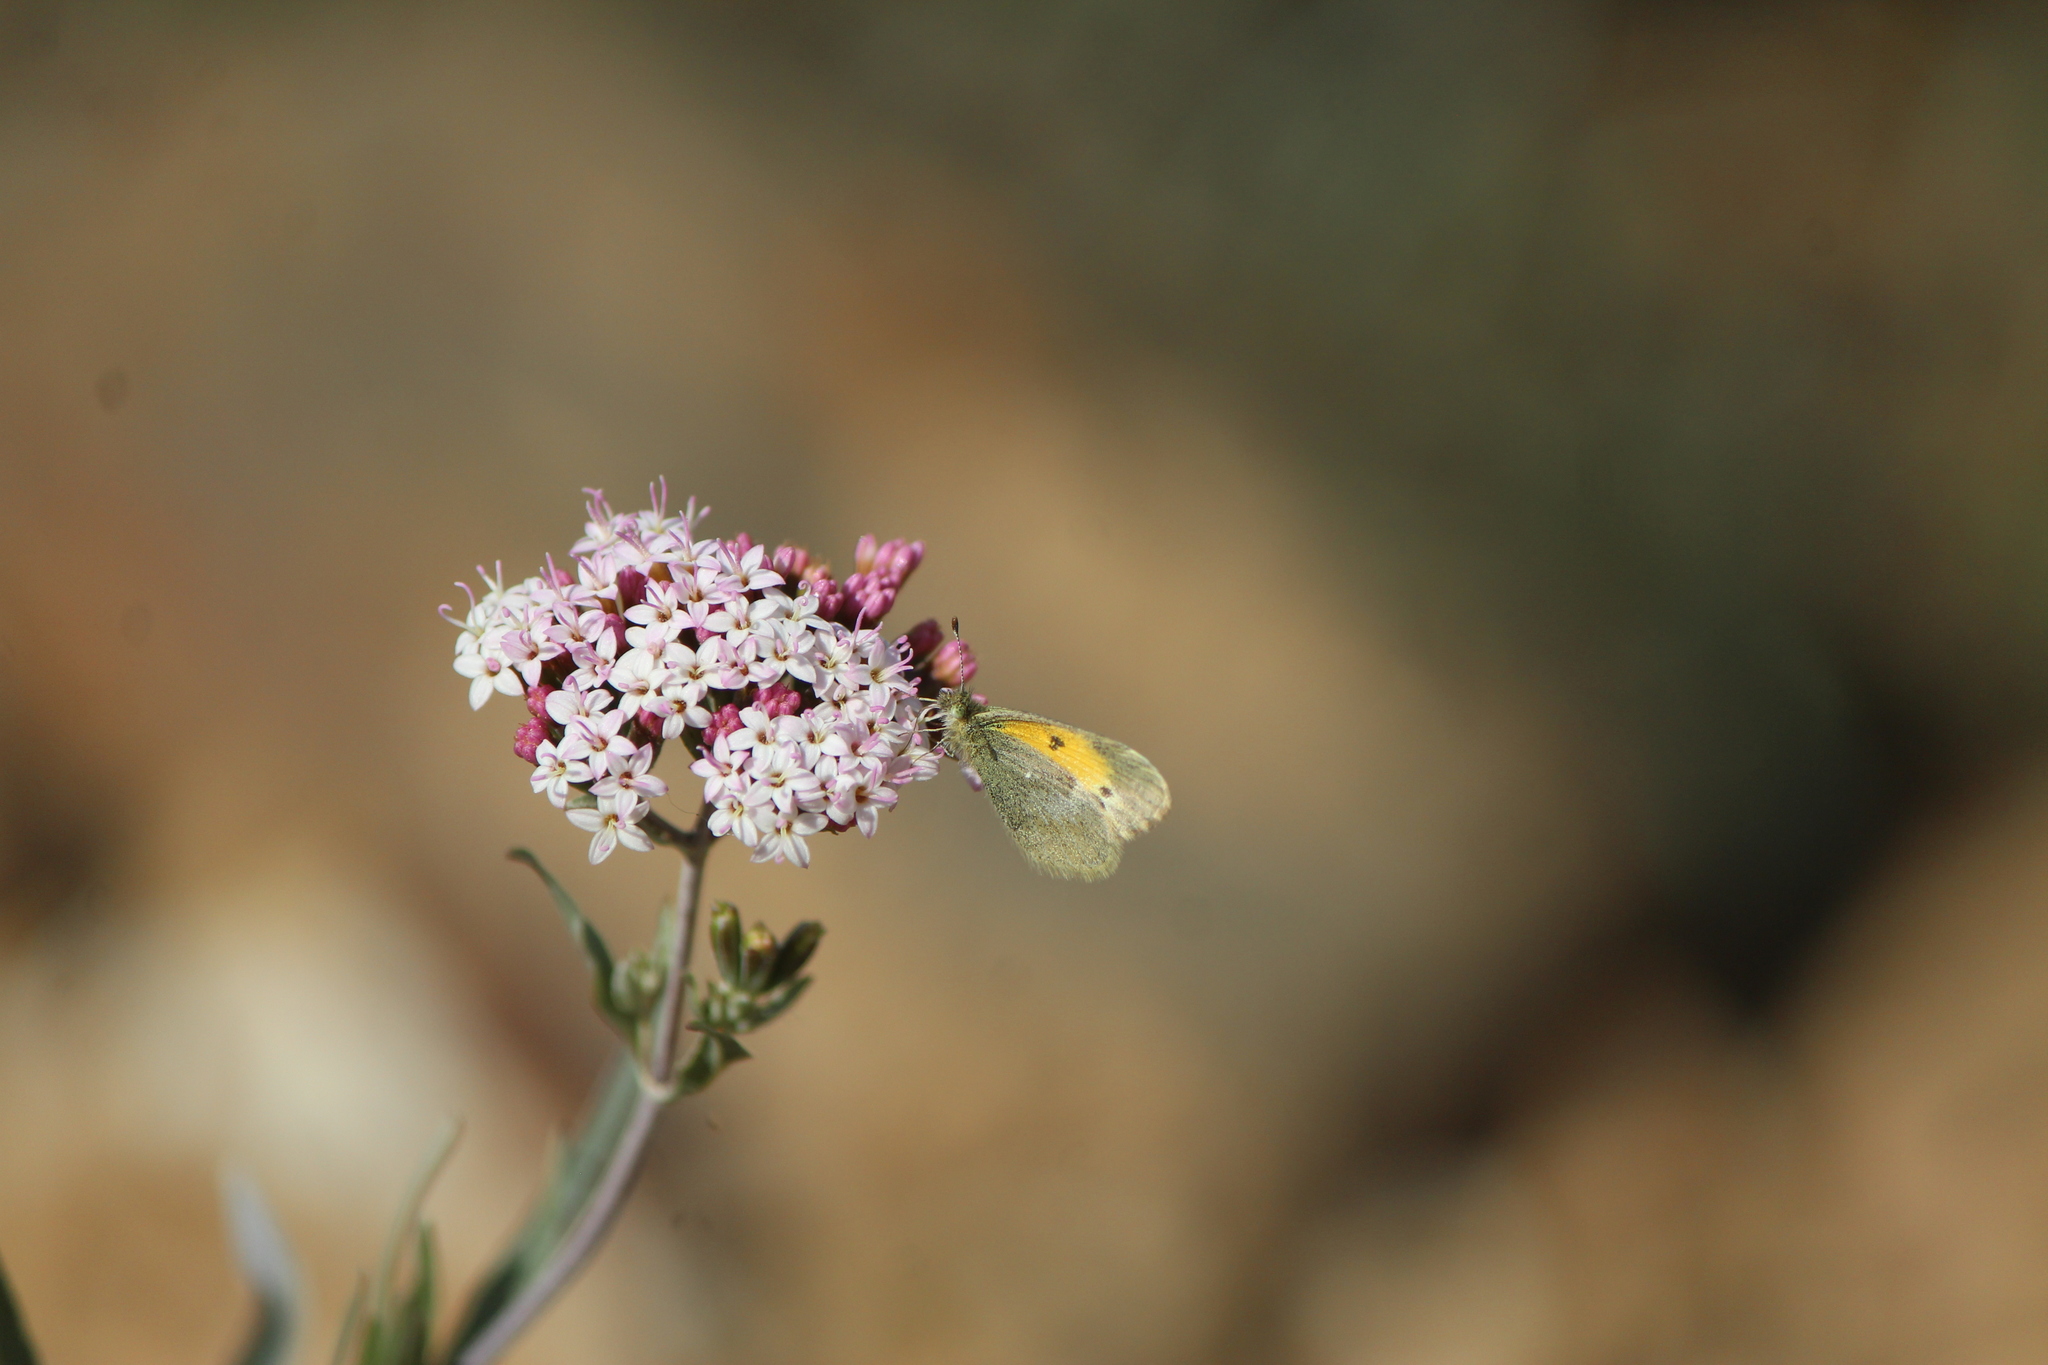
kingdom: Animalia
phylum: Arthropoda
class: Insecta
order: Lepidoptera
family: Pieridae
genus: Nathalis
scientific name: Nathalis iole
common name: Dainty sulphur
